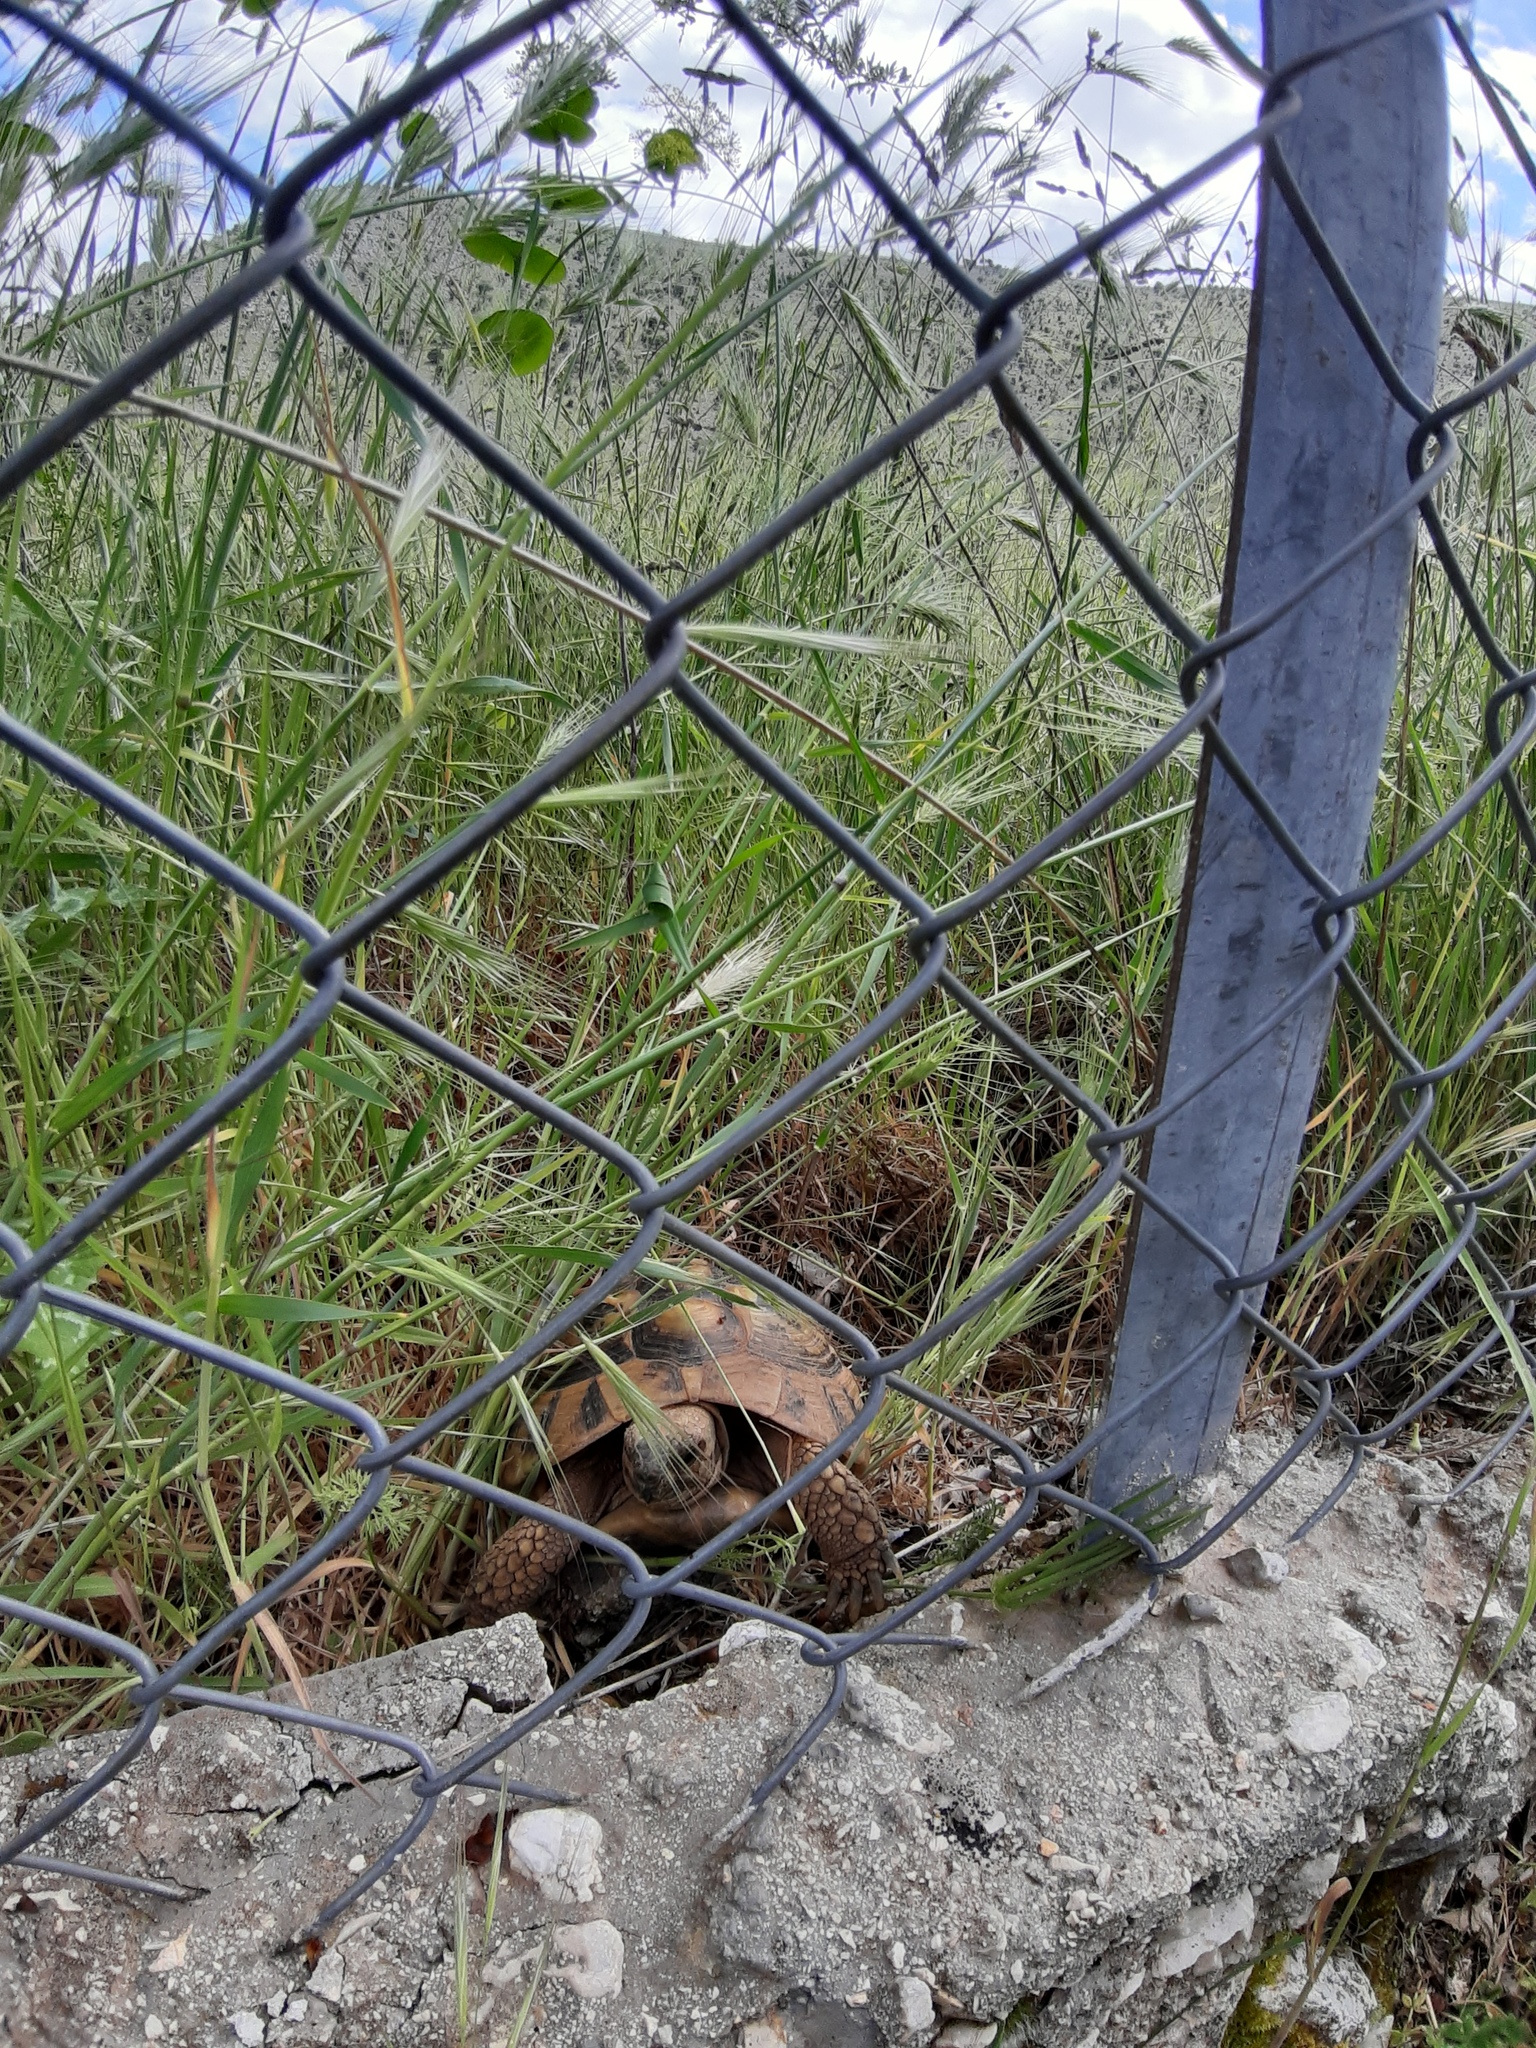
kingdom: Animalia
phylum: Chordata
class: Testudines
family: Testudinidae
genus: Testudo
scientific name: Testudo hermanni
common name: Hermann's tortoise
